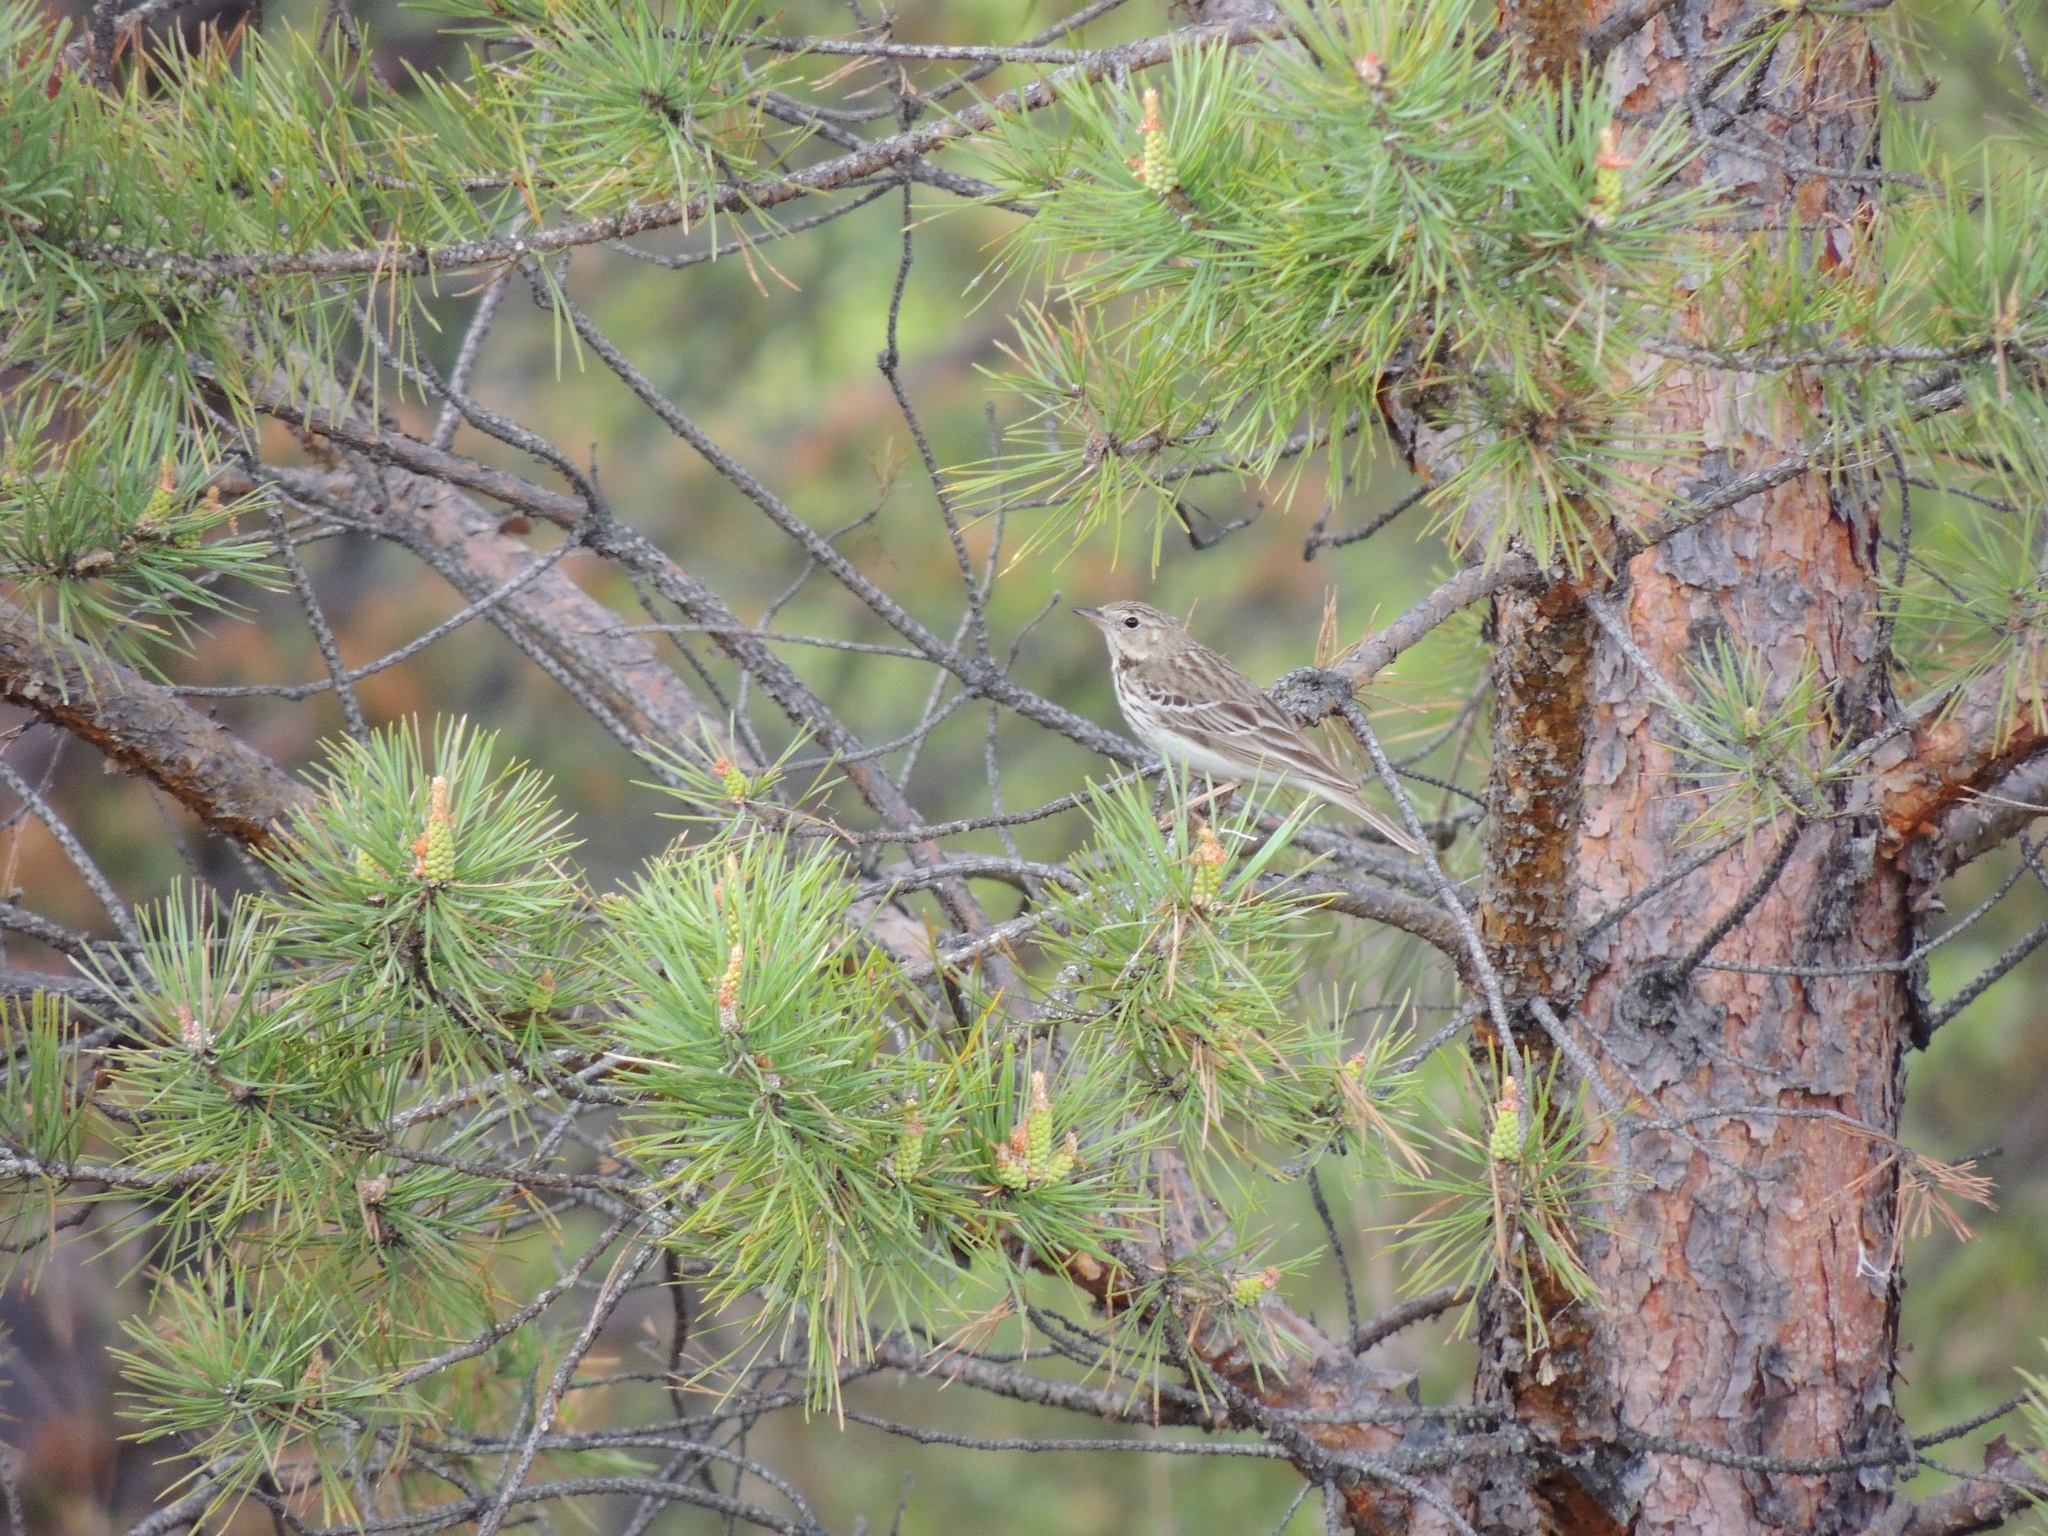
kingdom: Animalia
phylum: Chordata
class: Aves
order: Passeriformes
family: Motacillidae
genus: Anthus
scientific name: Anthus trivialis
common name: Tree pipit
